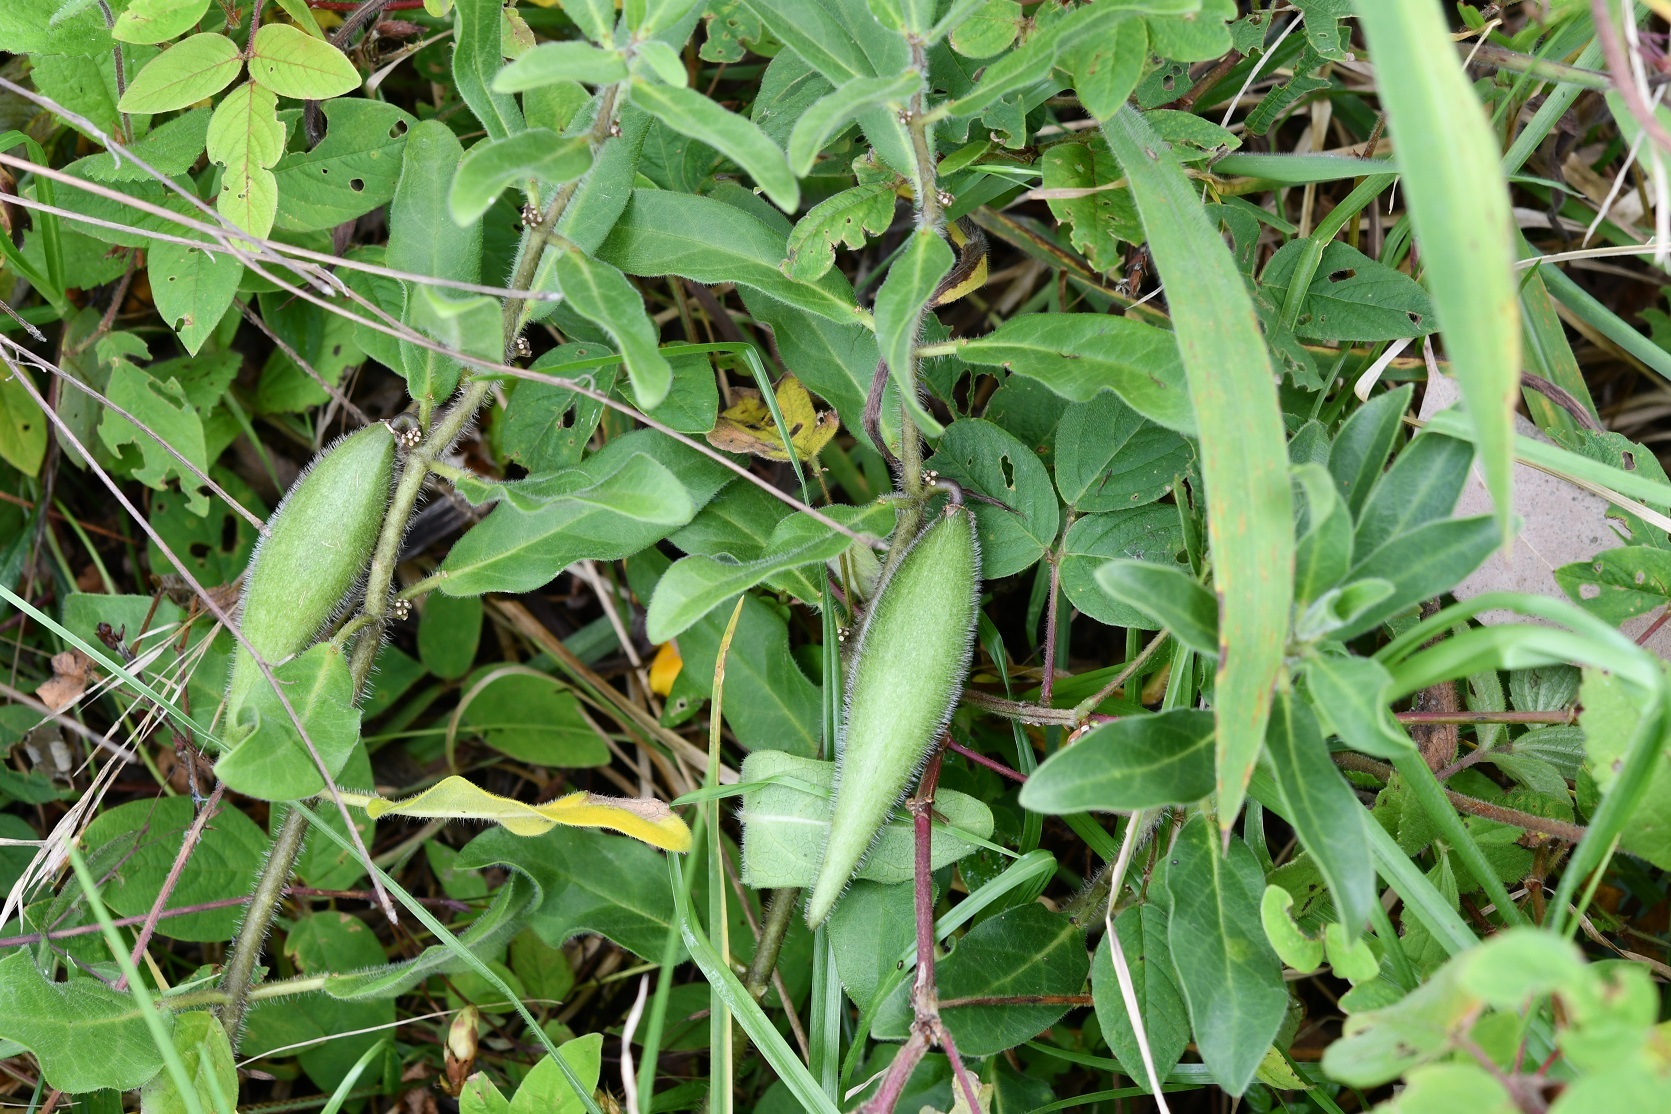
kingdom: Plantae
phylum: Tracheophyta
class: Magnoliopsida
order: Gentianales
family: Apocynaceae
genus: Pherotrichis
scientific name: Pherotrichis villosa
